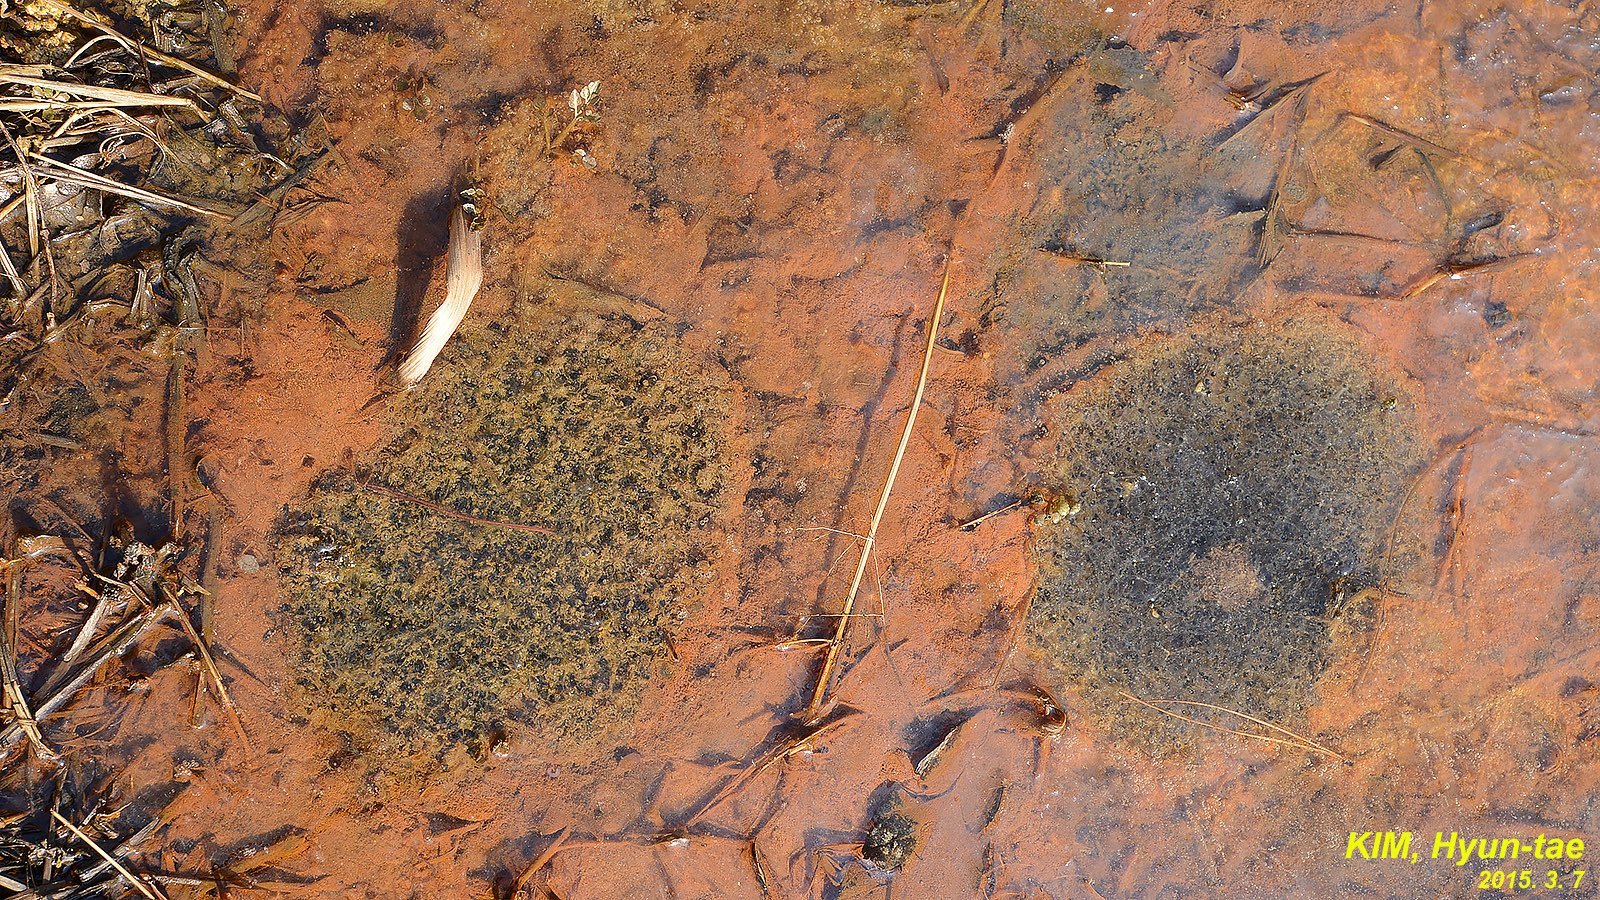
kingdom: Animalia
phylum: Chordata
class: Amphibia
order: Anura
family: Ranidae
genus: Rana
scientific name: Rana uenoi
